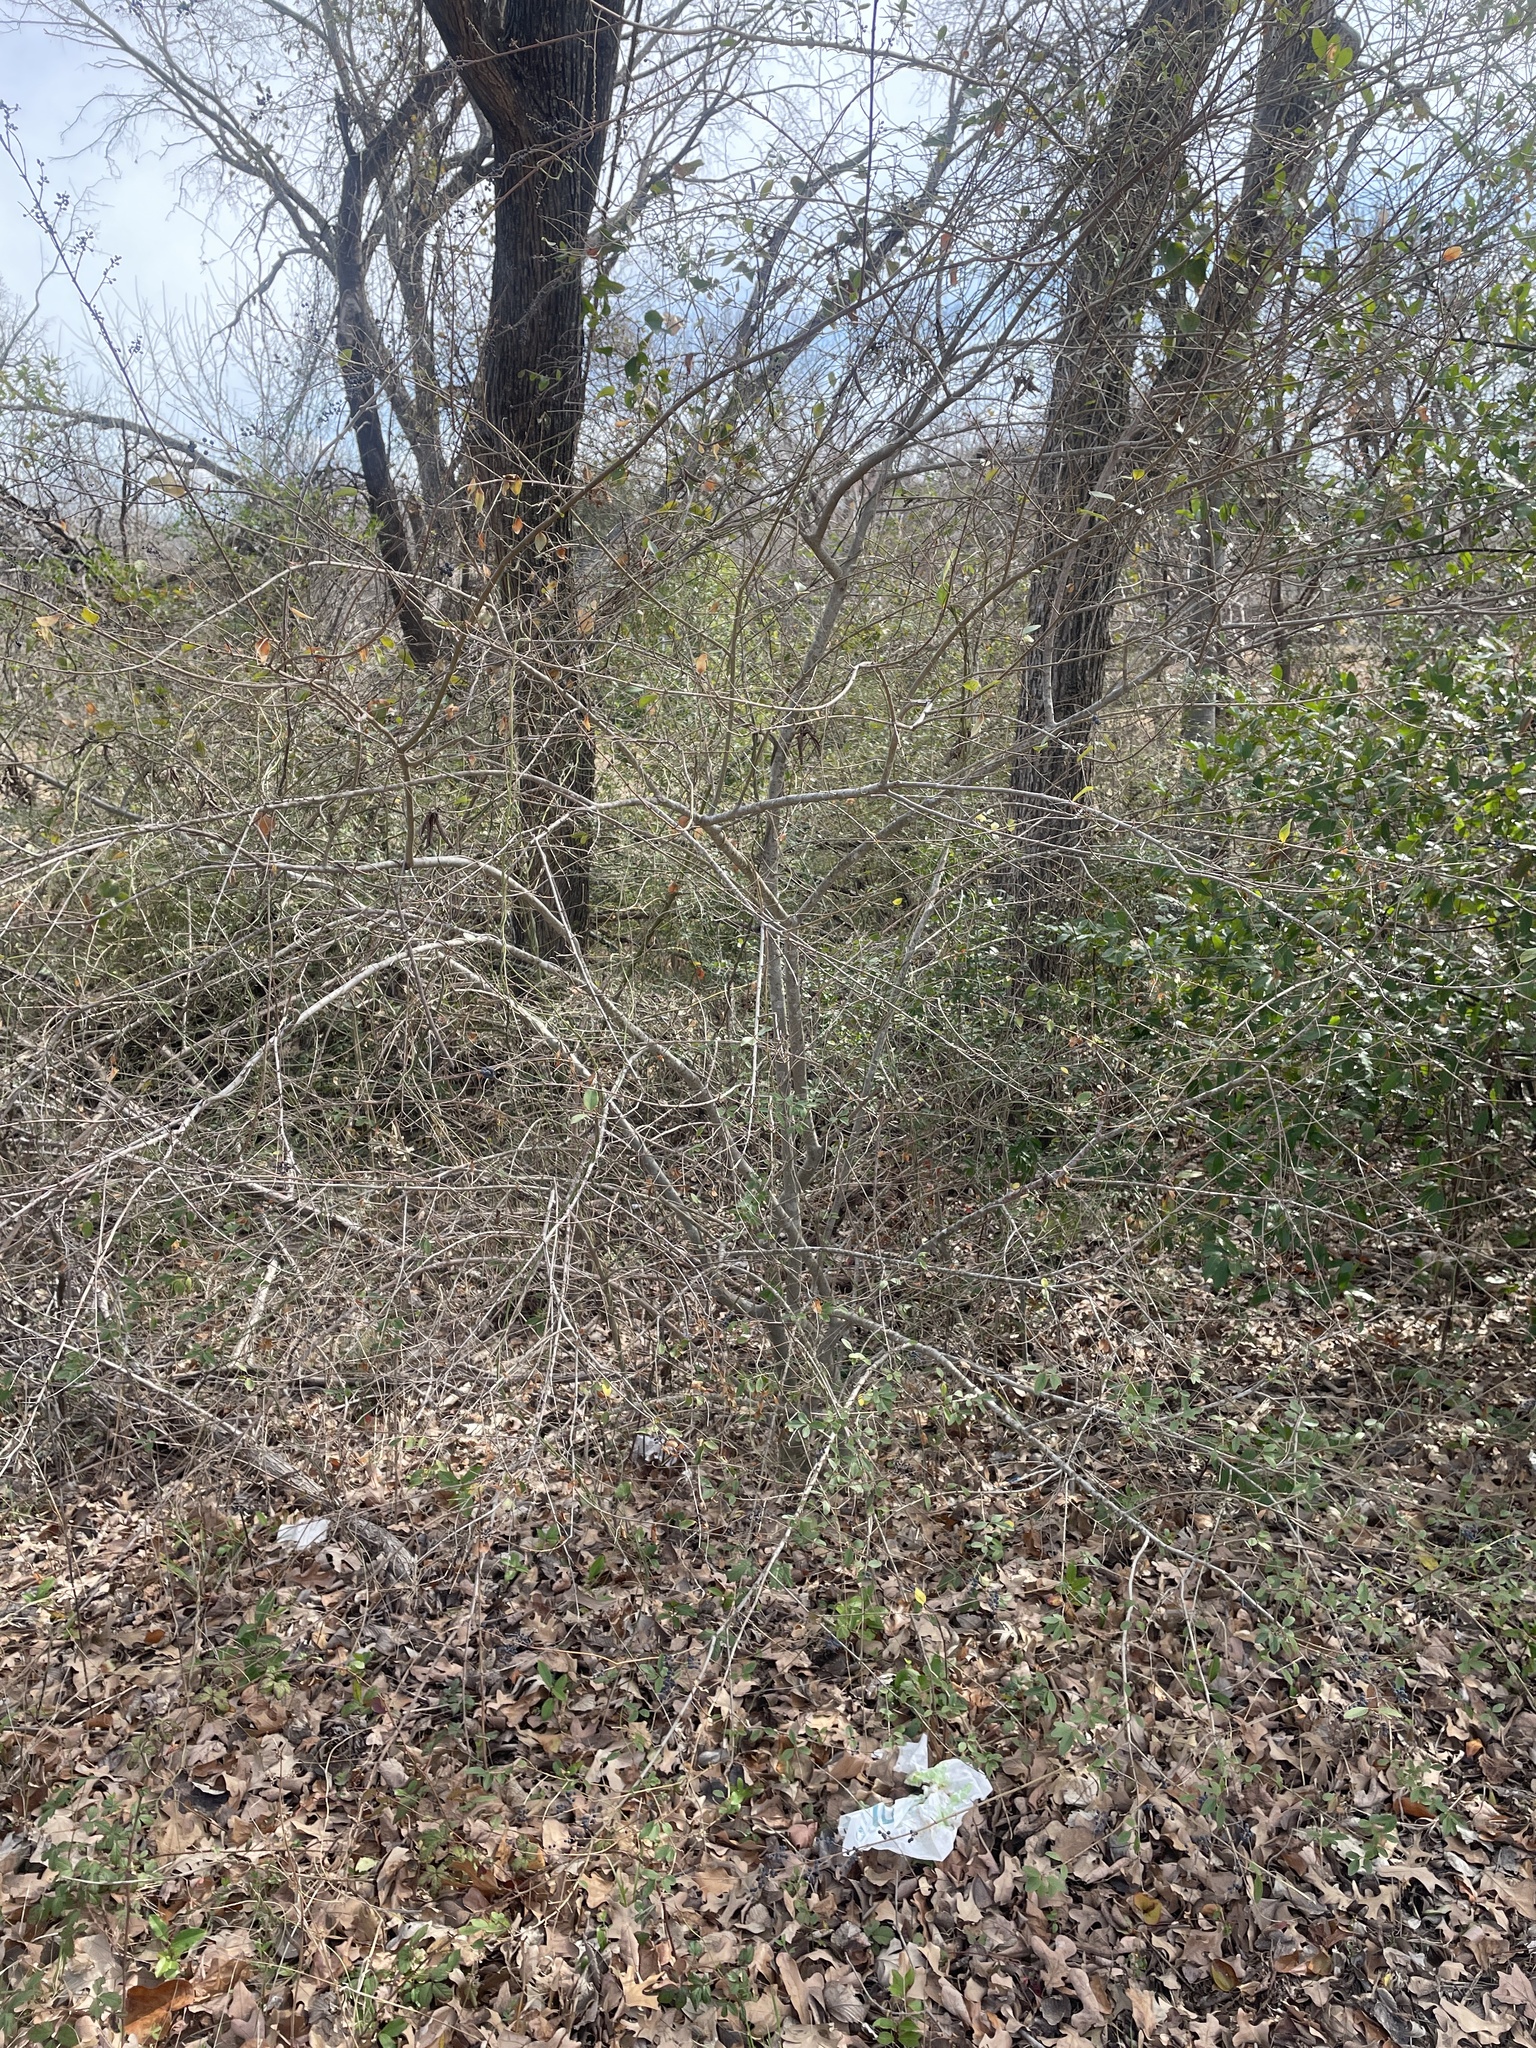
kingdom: Plantae
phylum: Tracheophyta
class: Magnoliopsida
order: Lamiales
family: Oleaceae
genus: Ligustrum
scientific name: Ligustrum sinense
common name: Chinese privet
